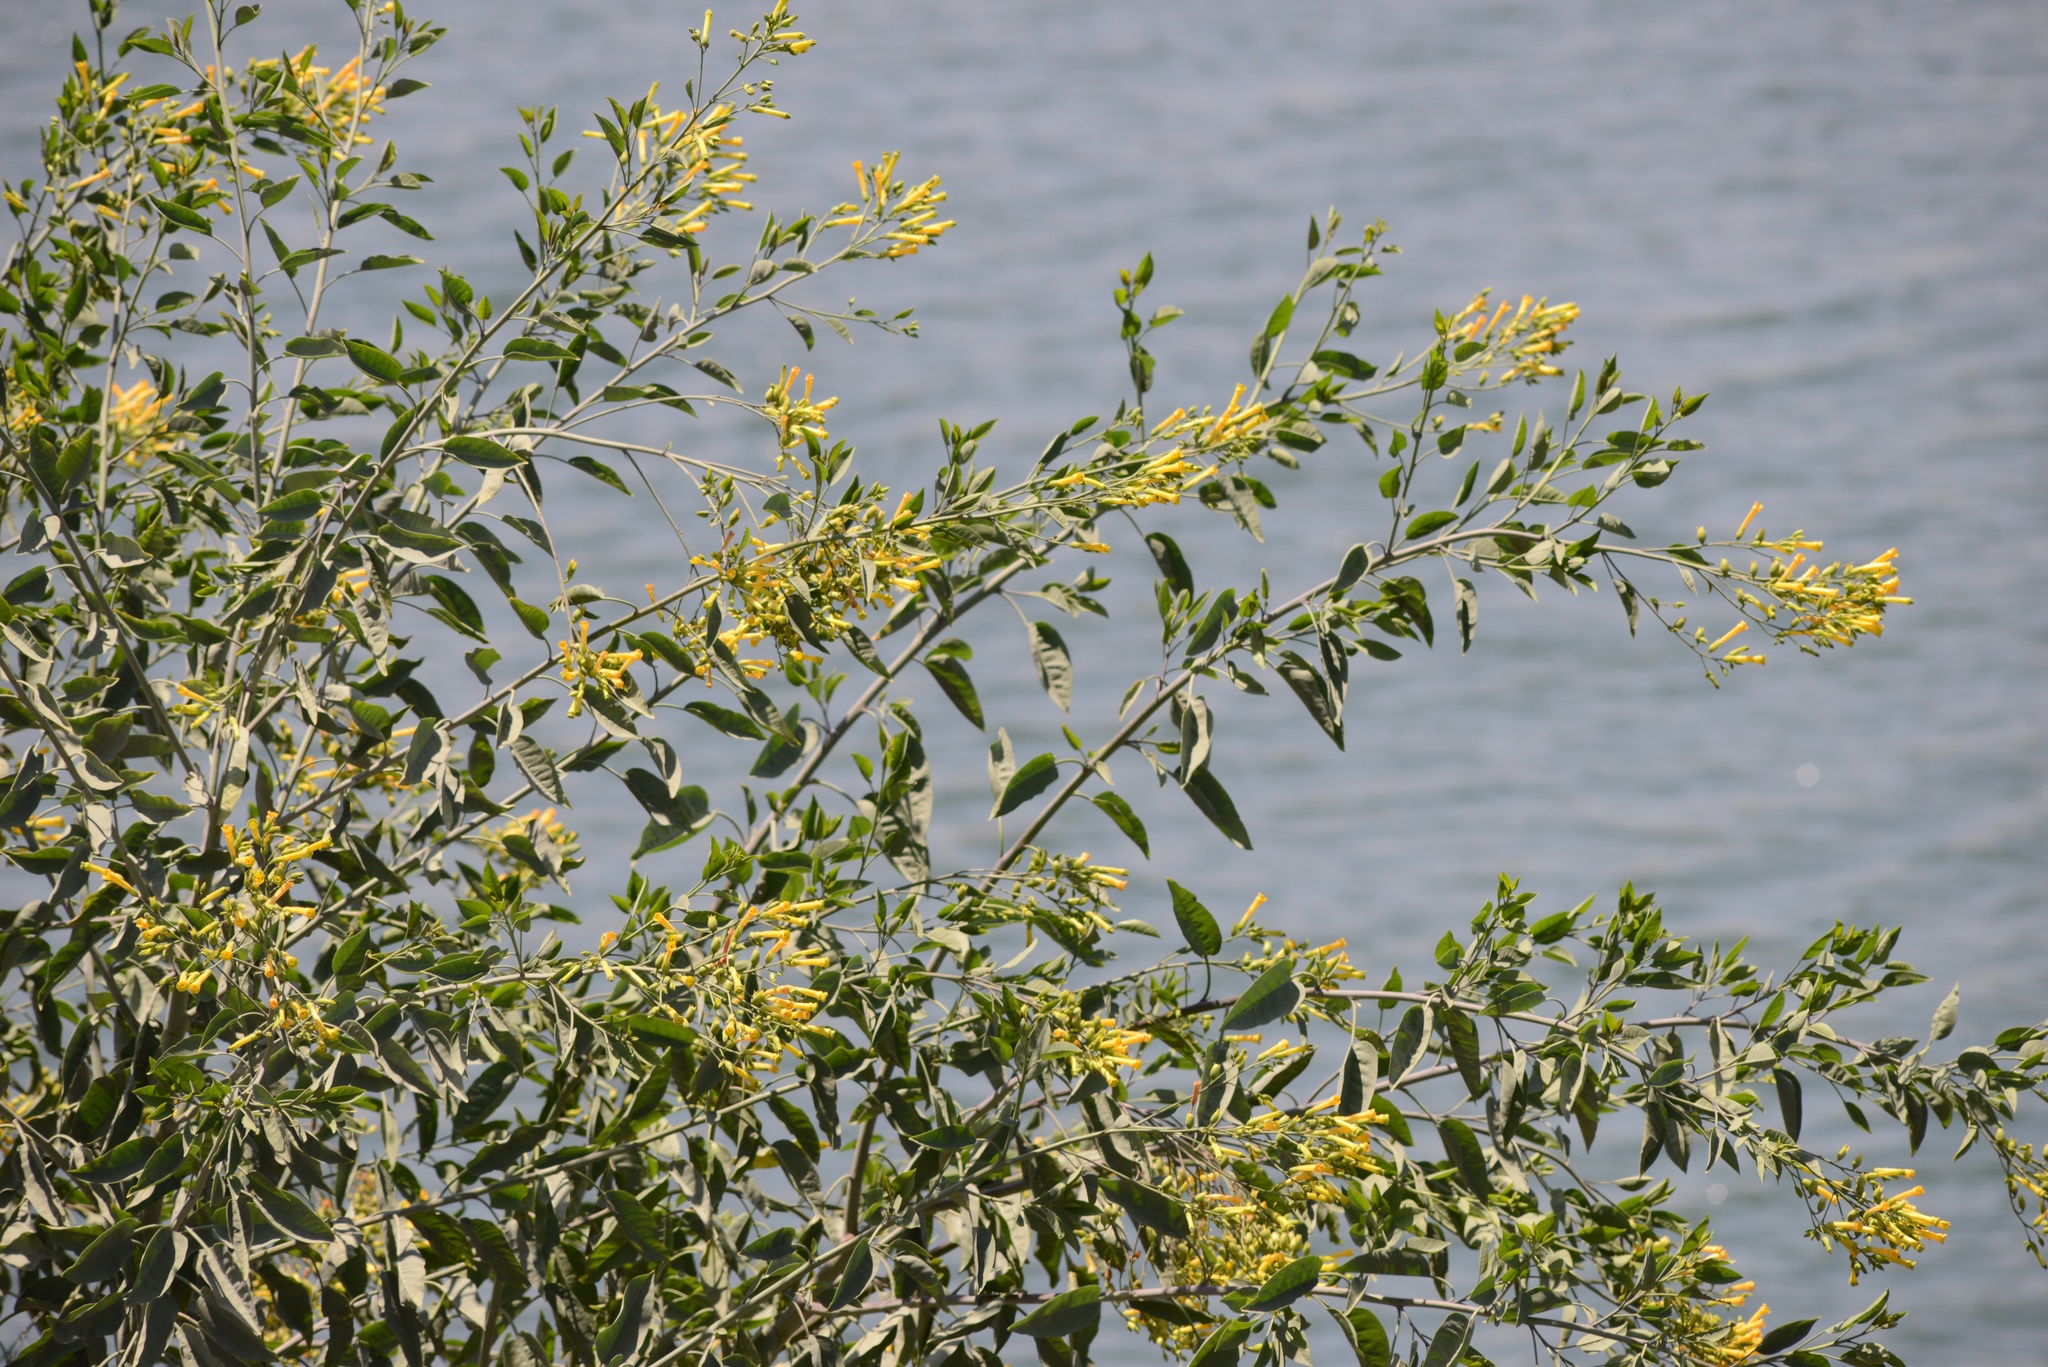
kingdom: Plantae
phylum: Tracheophyta
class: Magnoliopsida
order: Solanales
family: Solanaceae
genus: Nicotiana
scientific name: Nicotiana glauca
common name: Tree tobacco
